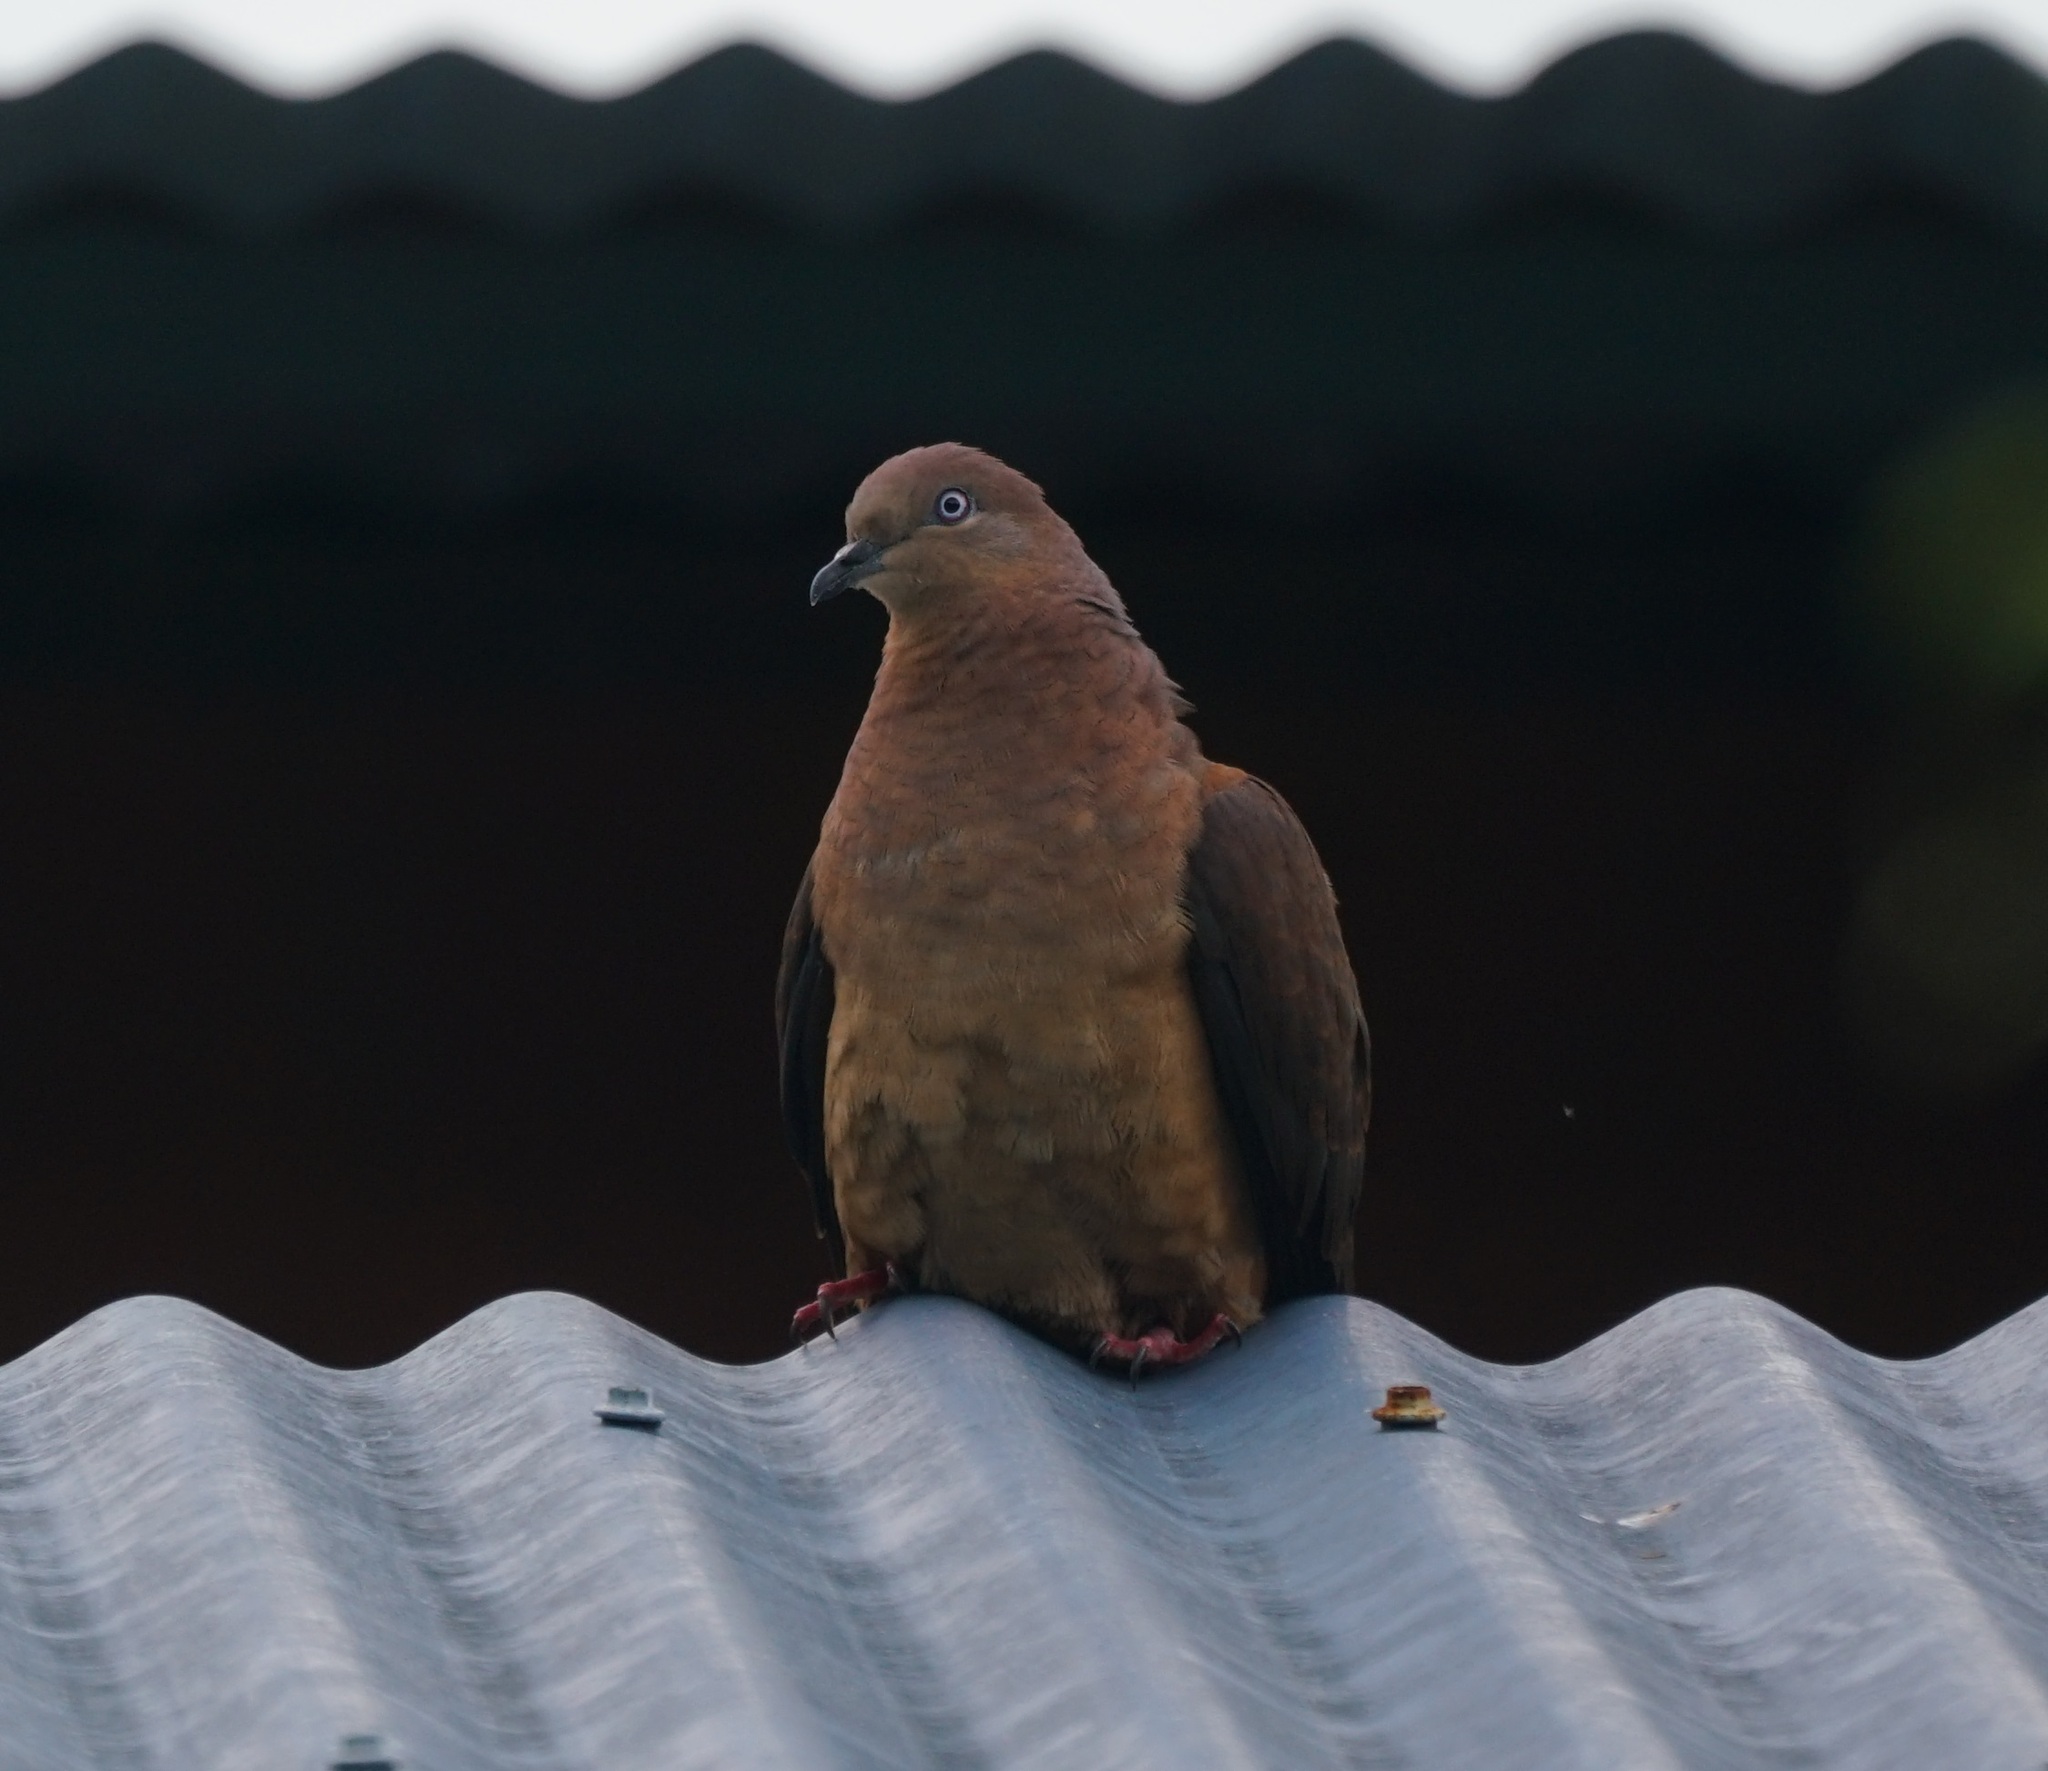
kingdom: Animalia
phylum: Chordata
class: Aves
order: Columbiformes
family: Columbidae
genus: Macropygia
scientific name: Macropygia phasianella
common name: Brown cuckoo-dove
